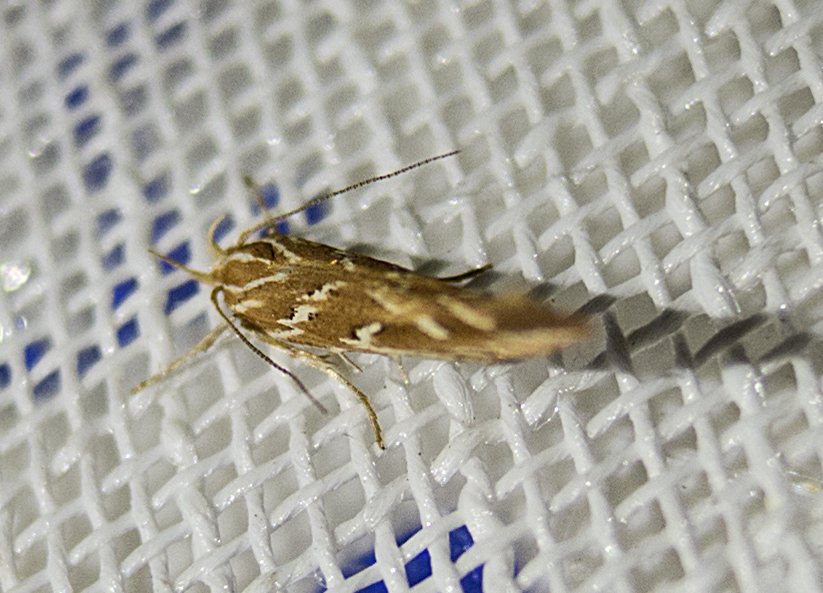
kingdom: Animalia
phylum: Arthropoda
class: Insecta
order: Lepidoptera
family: Cosmopterigidae
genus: Pyroderces
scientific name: Pyroderces argyrogrammos
